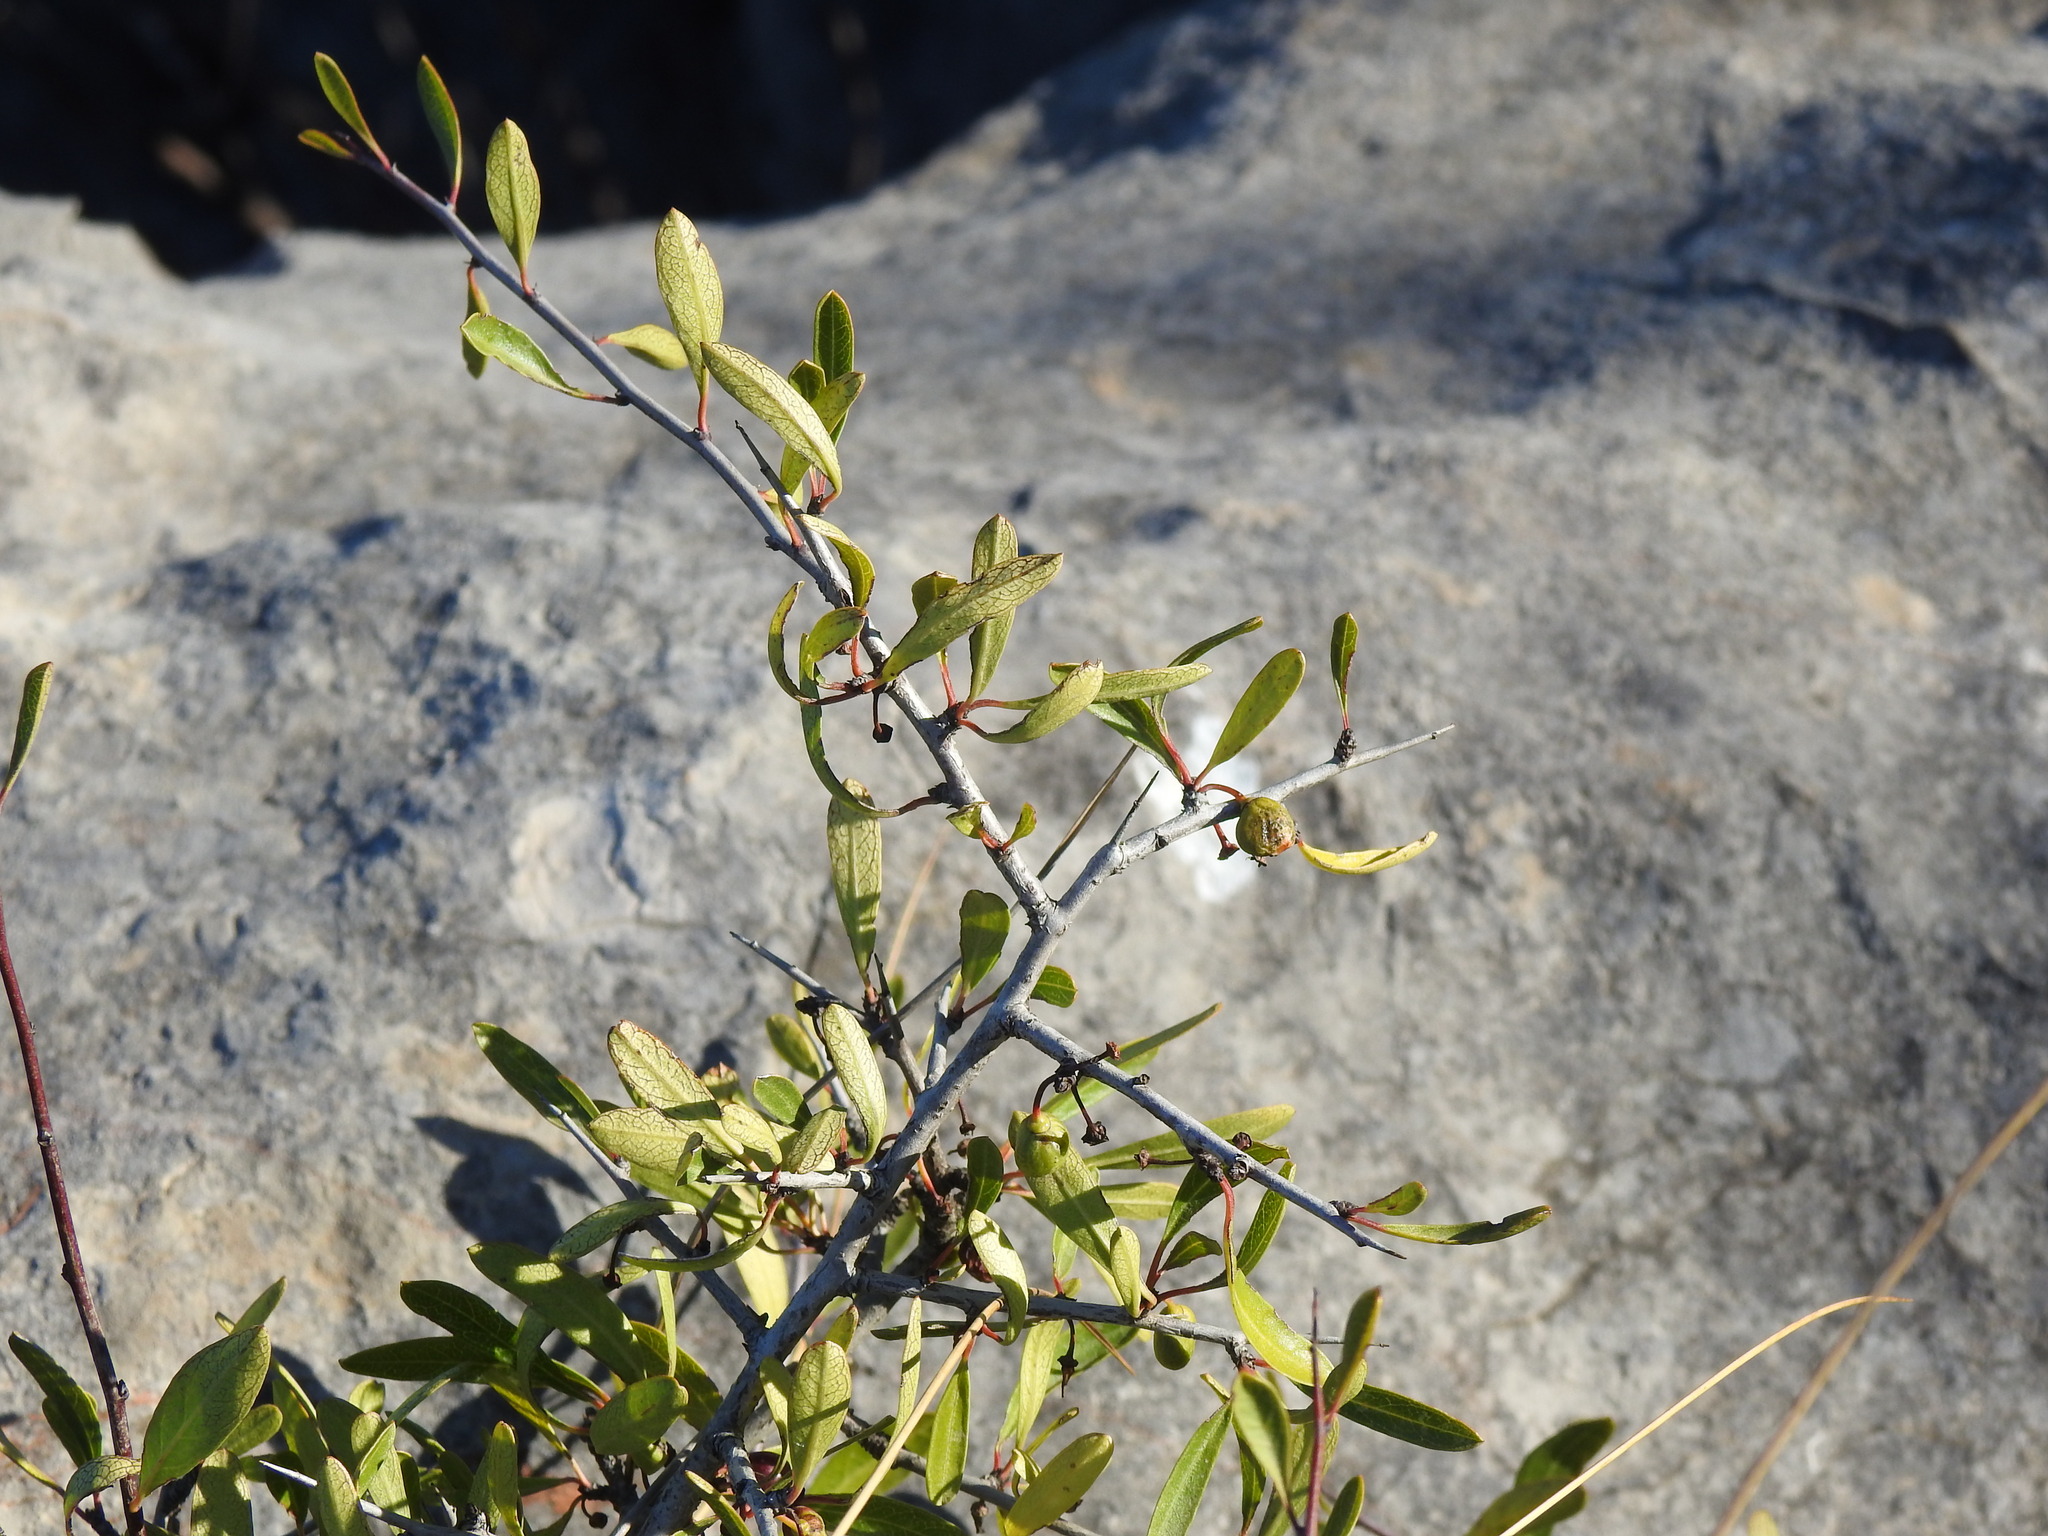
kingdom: Plantae
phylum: Tracheophyta
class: Magnoliopsida
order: Rosales
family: Rhamnaceae
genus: Rhamnus
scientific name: Rhamnus oleoides
